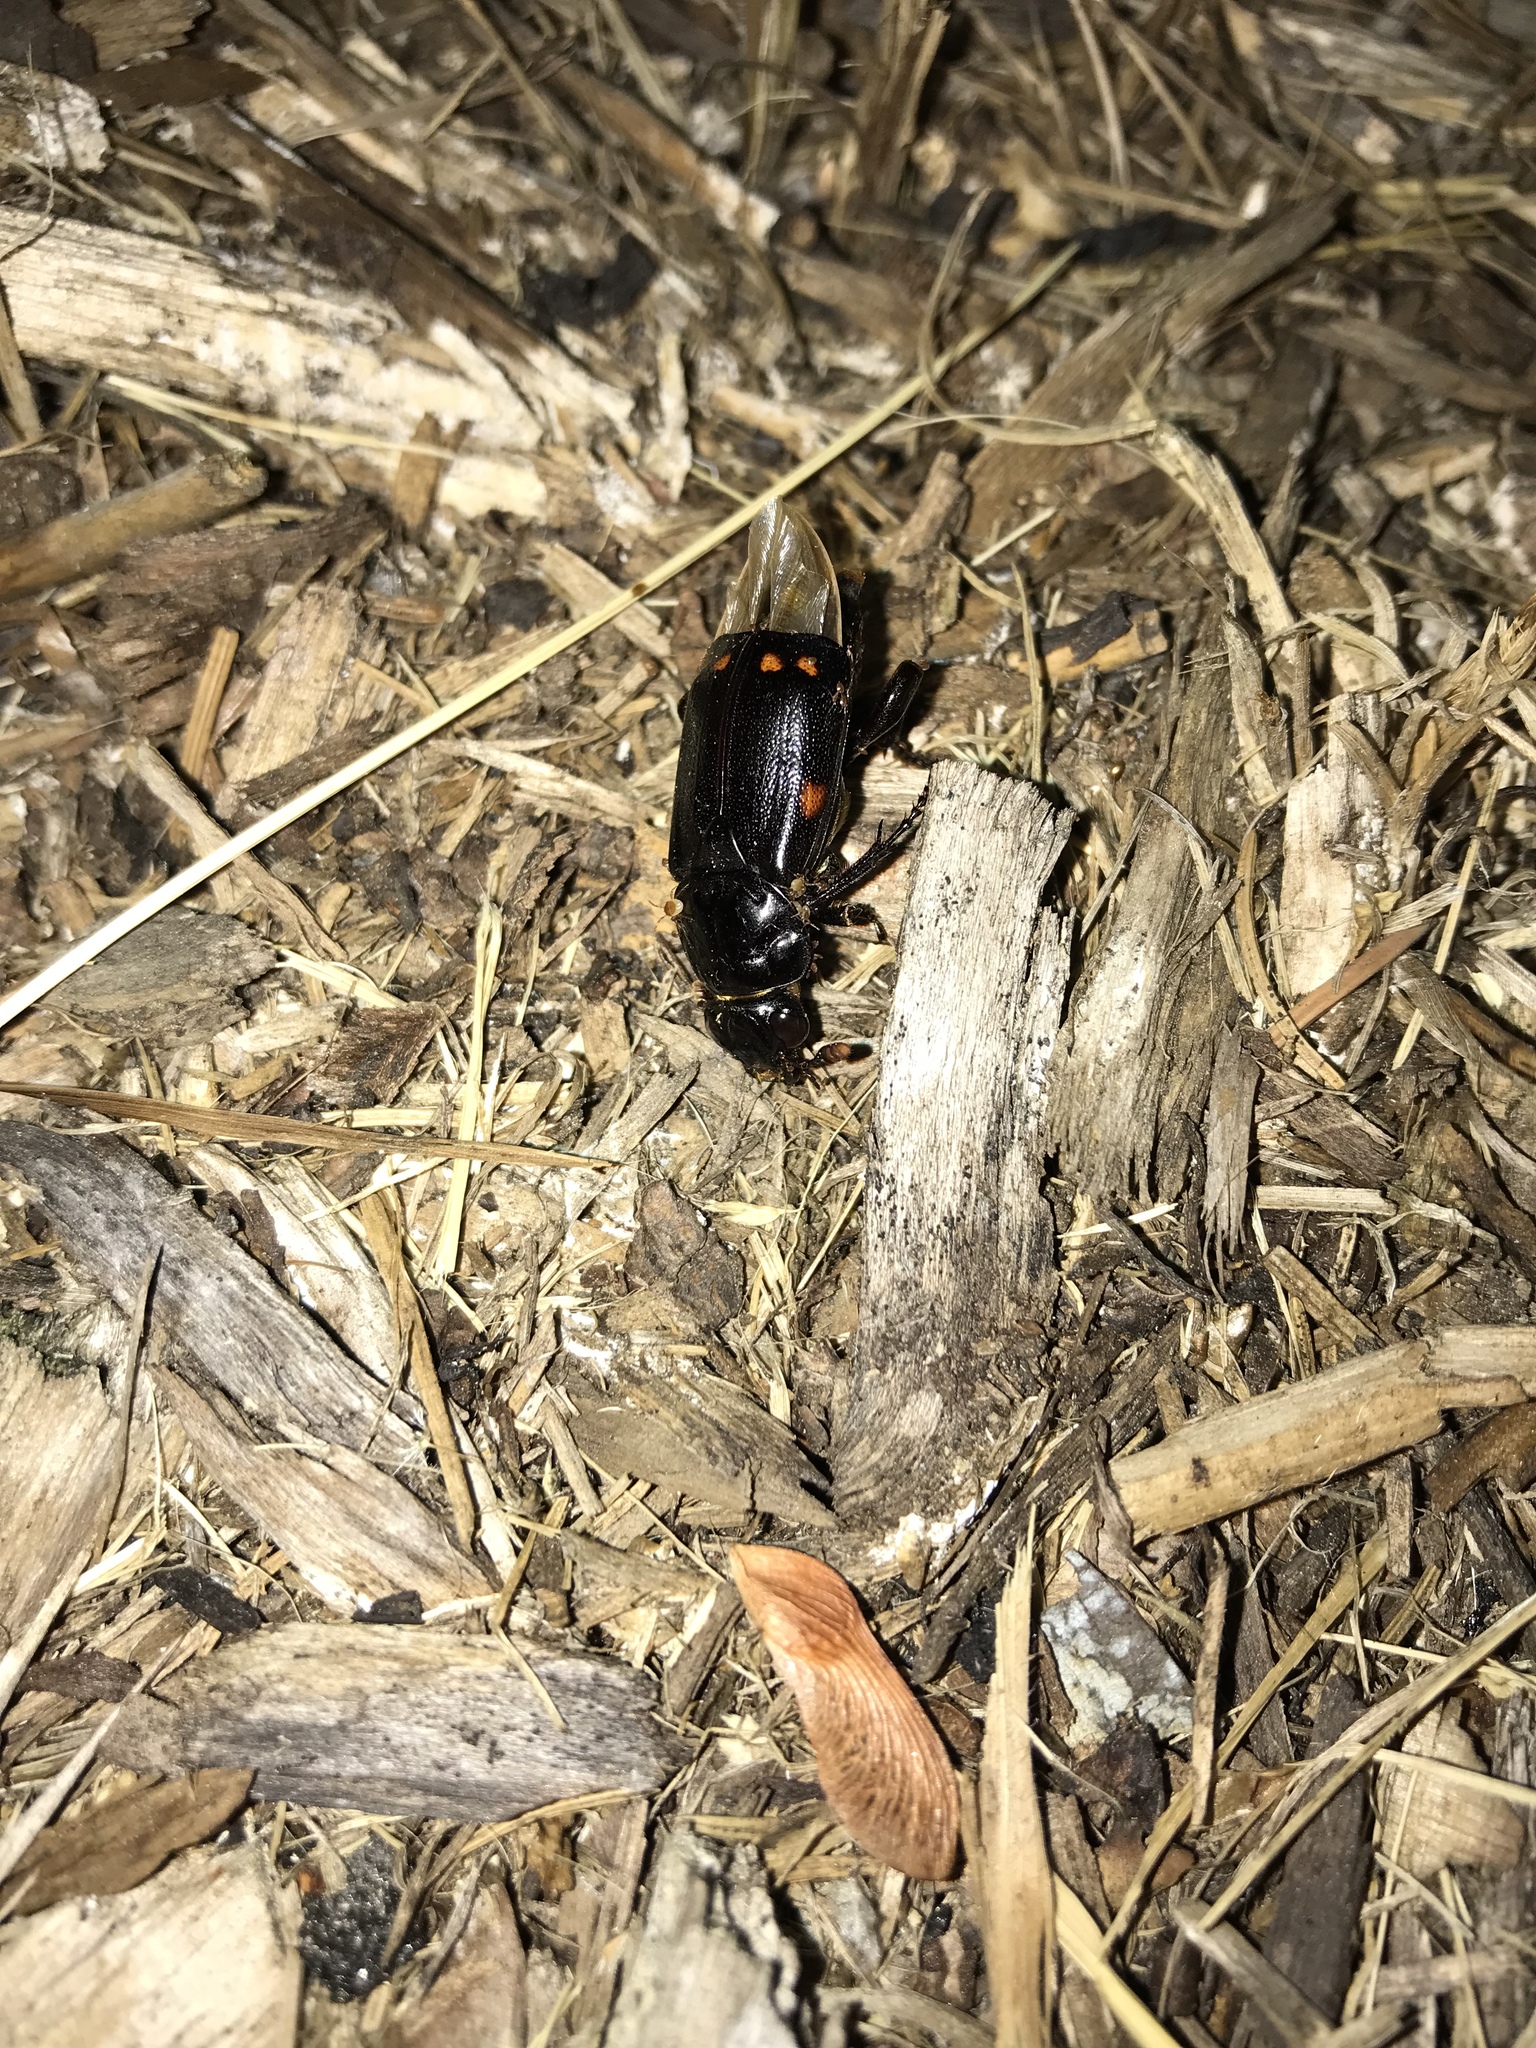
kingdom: Animalia
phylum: Arthropoda
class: Insecta
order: Coleoptera
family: Staphylinidae
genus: Nicrophorus
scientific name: Nicrophorus pustulatus
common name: Pustulated carrion beetle
